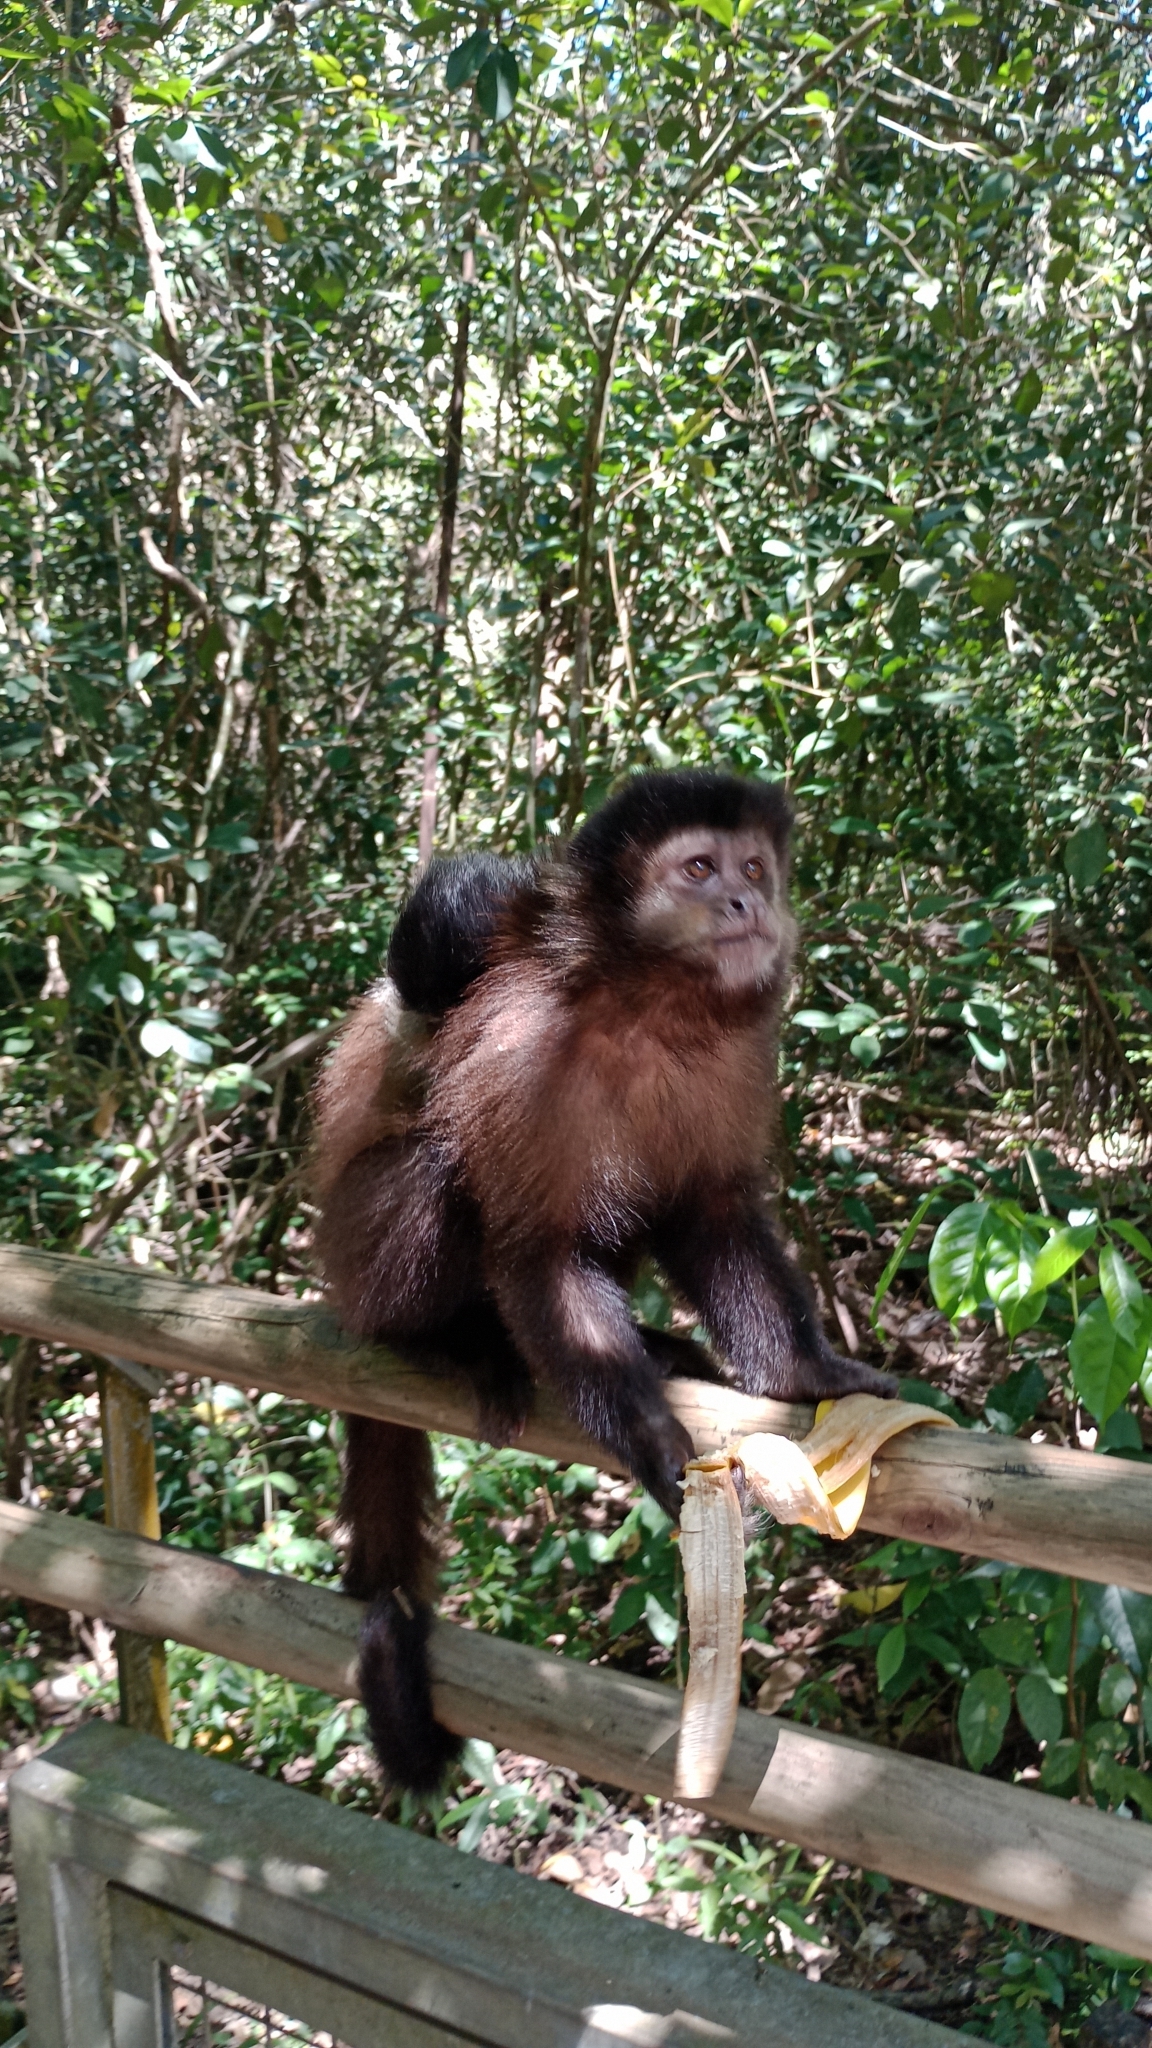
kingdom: Animalia
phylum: Chordata
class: Mammalia
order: Primates
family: Cebidae
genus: Sapajus
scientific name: Sapajus nigritus
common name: Black capuchin
